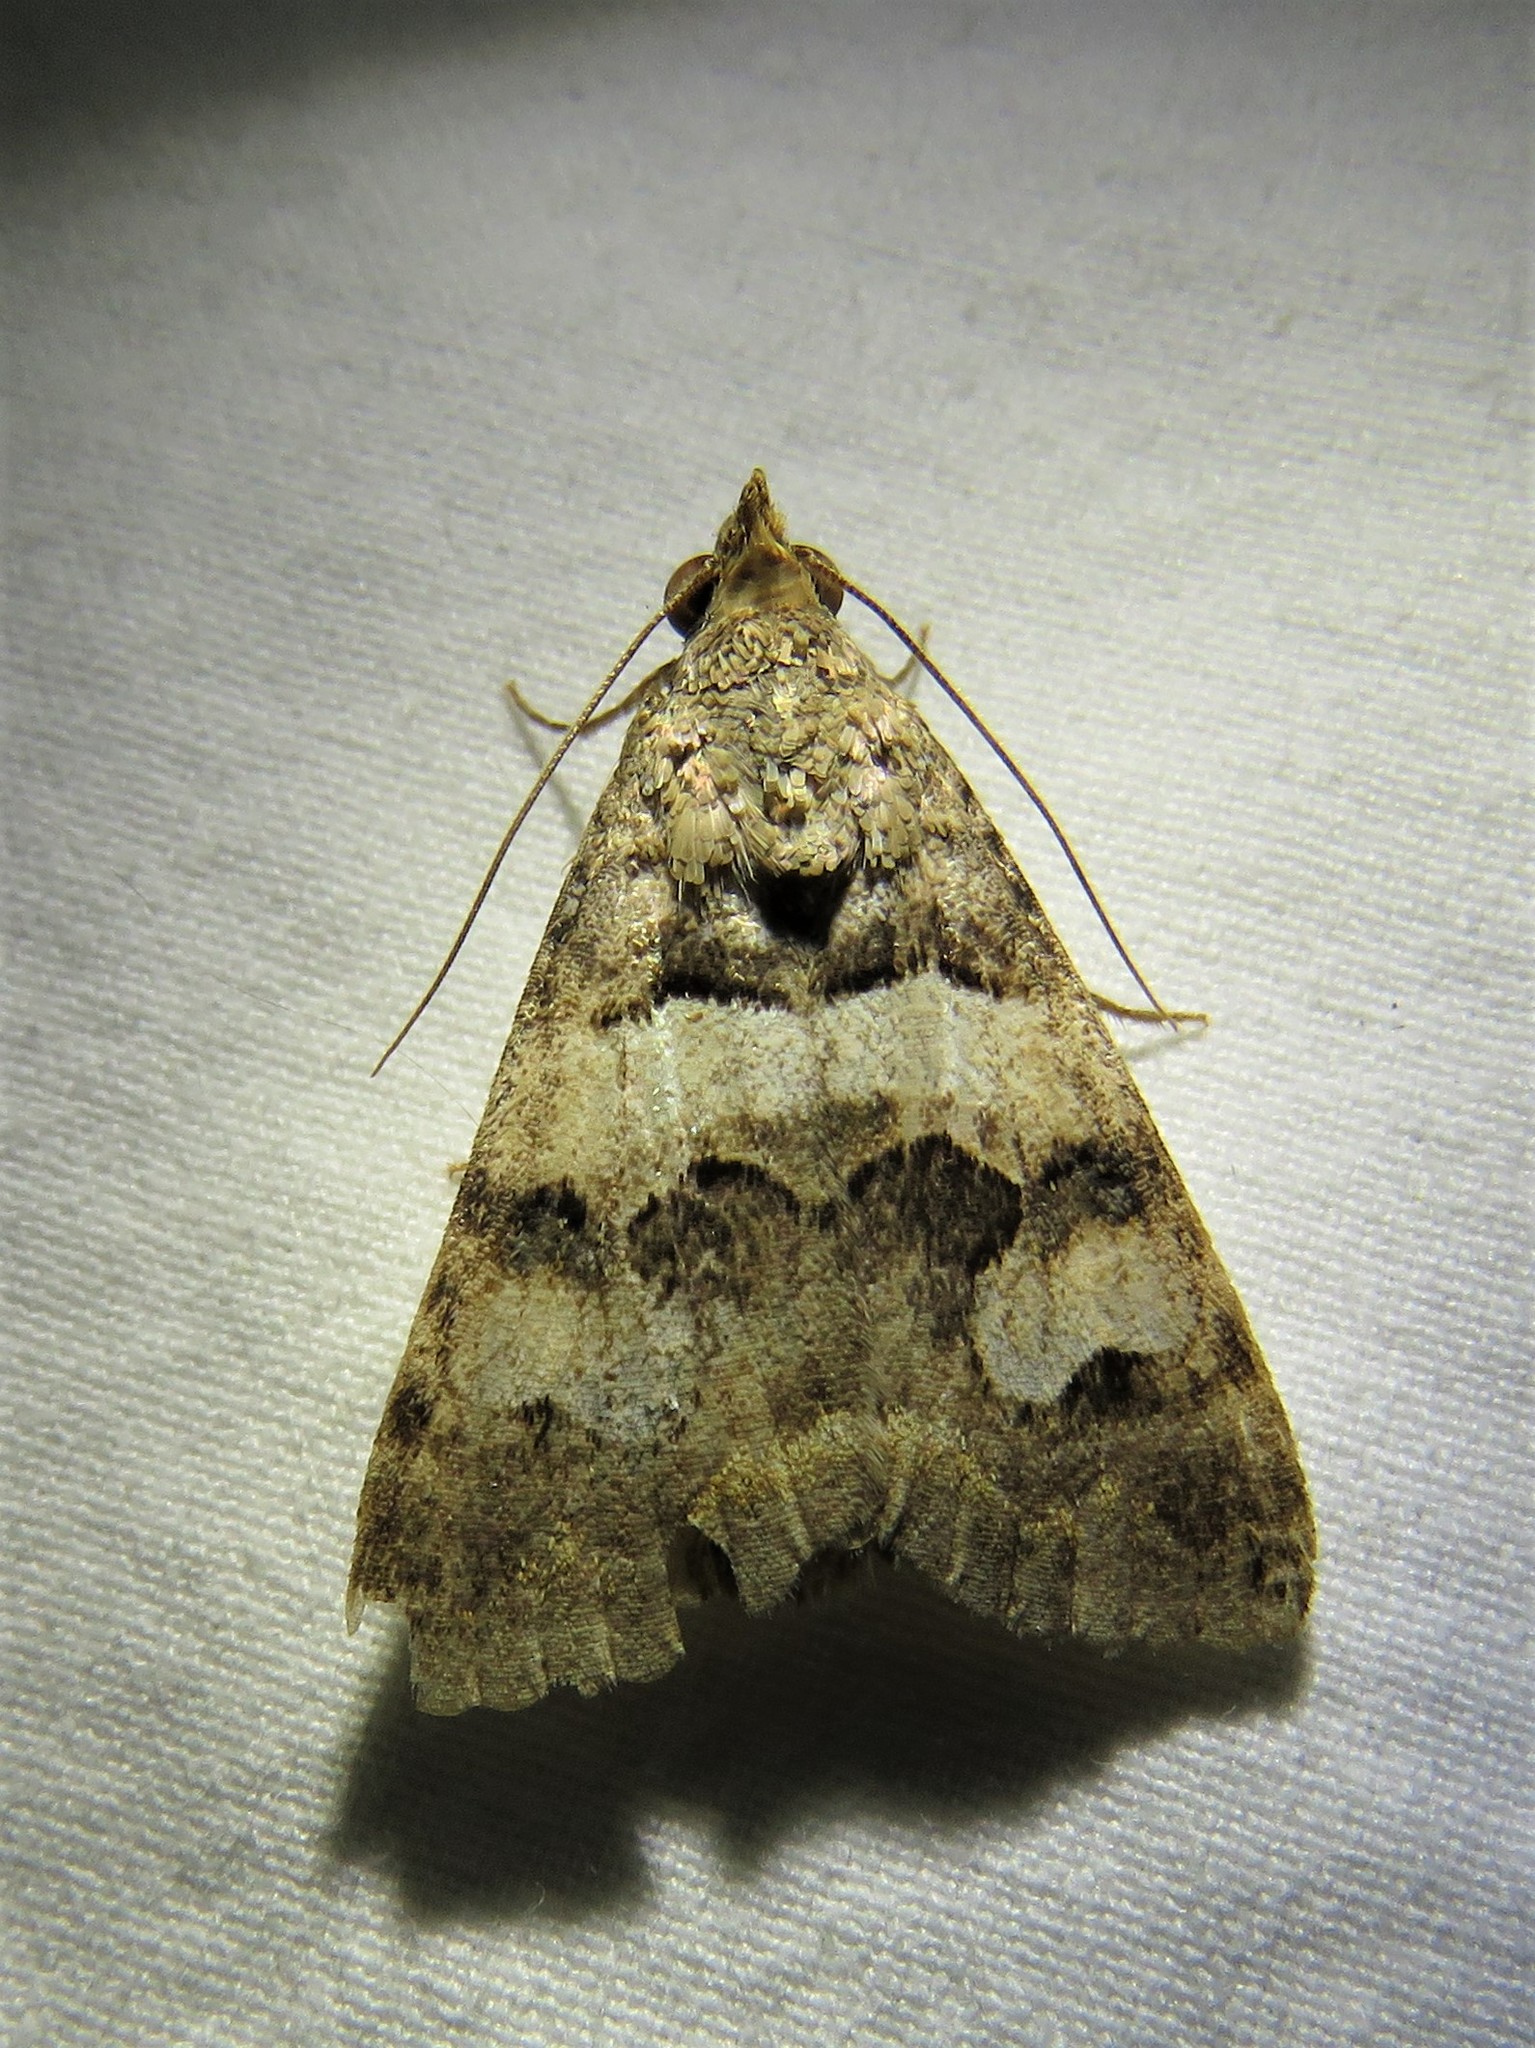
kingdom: Animalia
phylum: Arthropoda
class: Insecta
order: Lepidoptera
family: Erebidae
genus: Bulia
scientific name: Bulia deducta
